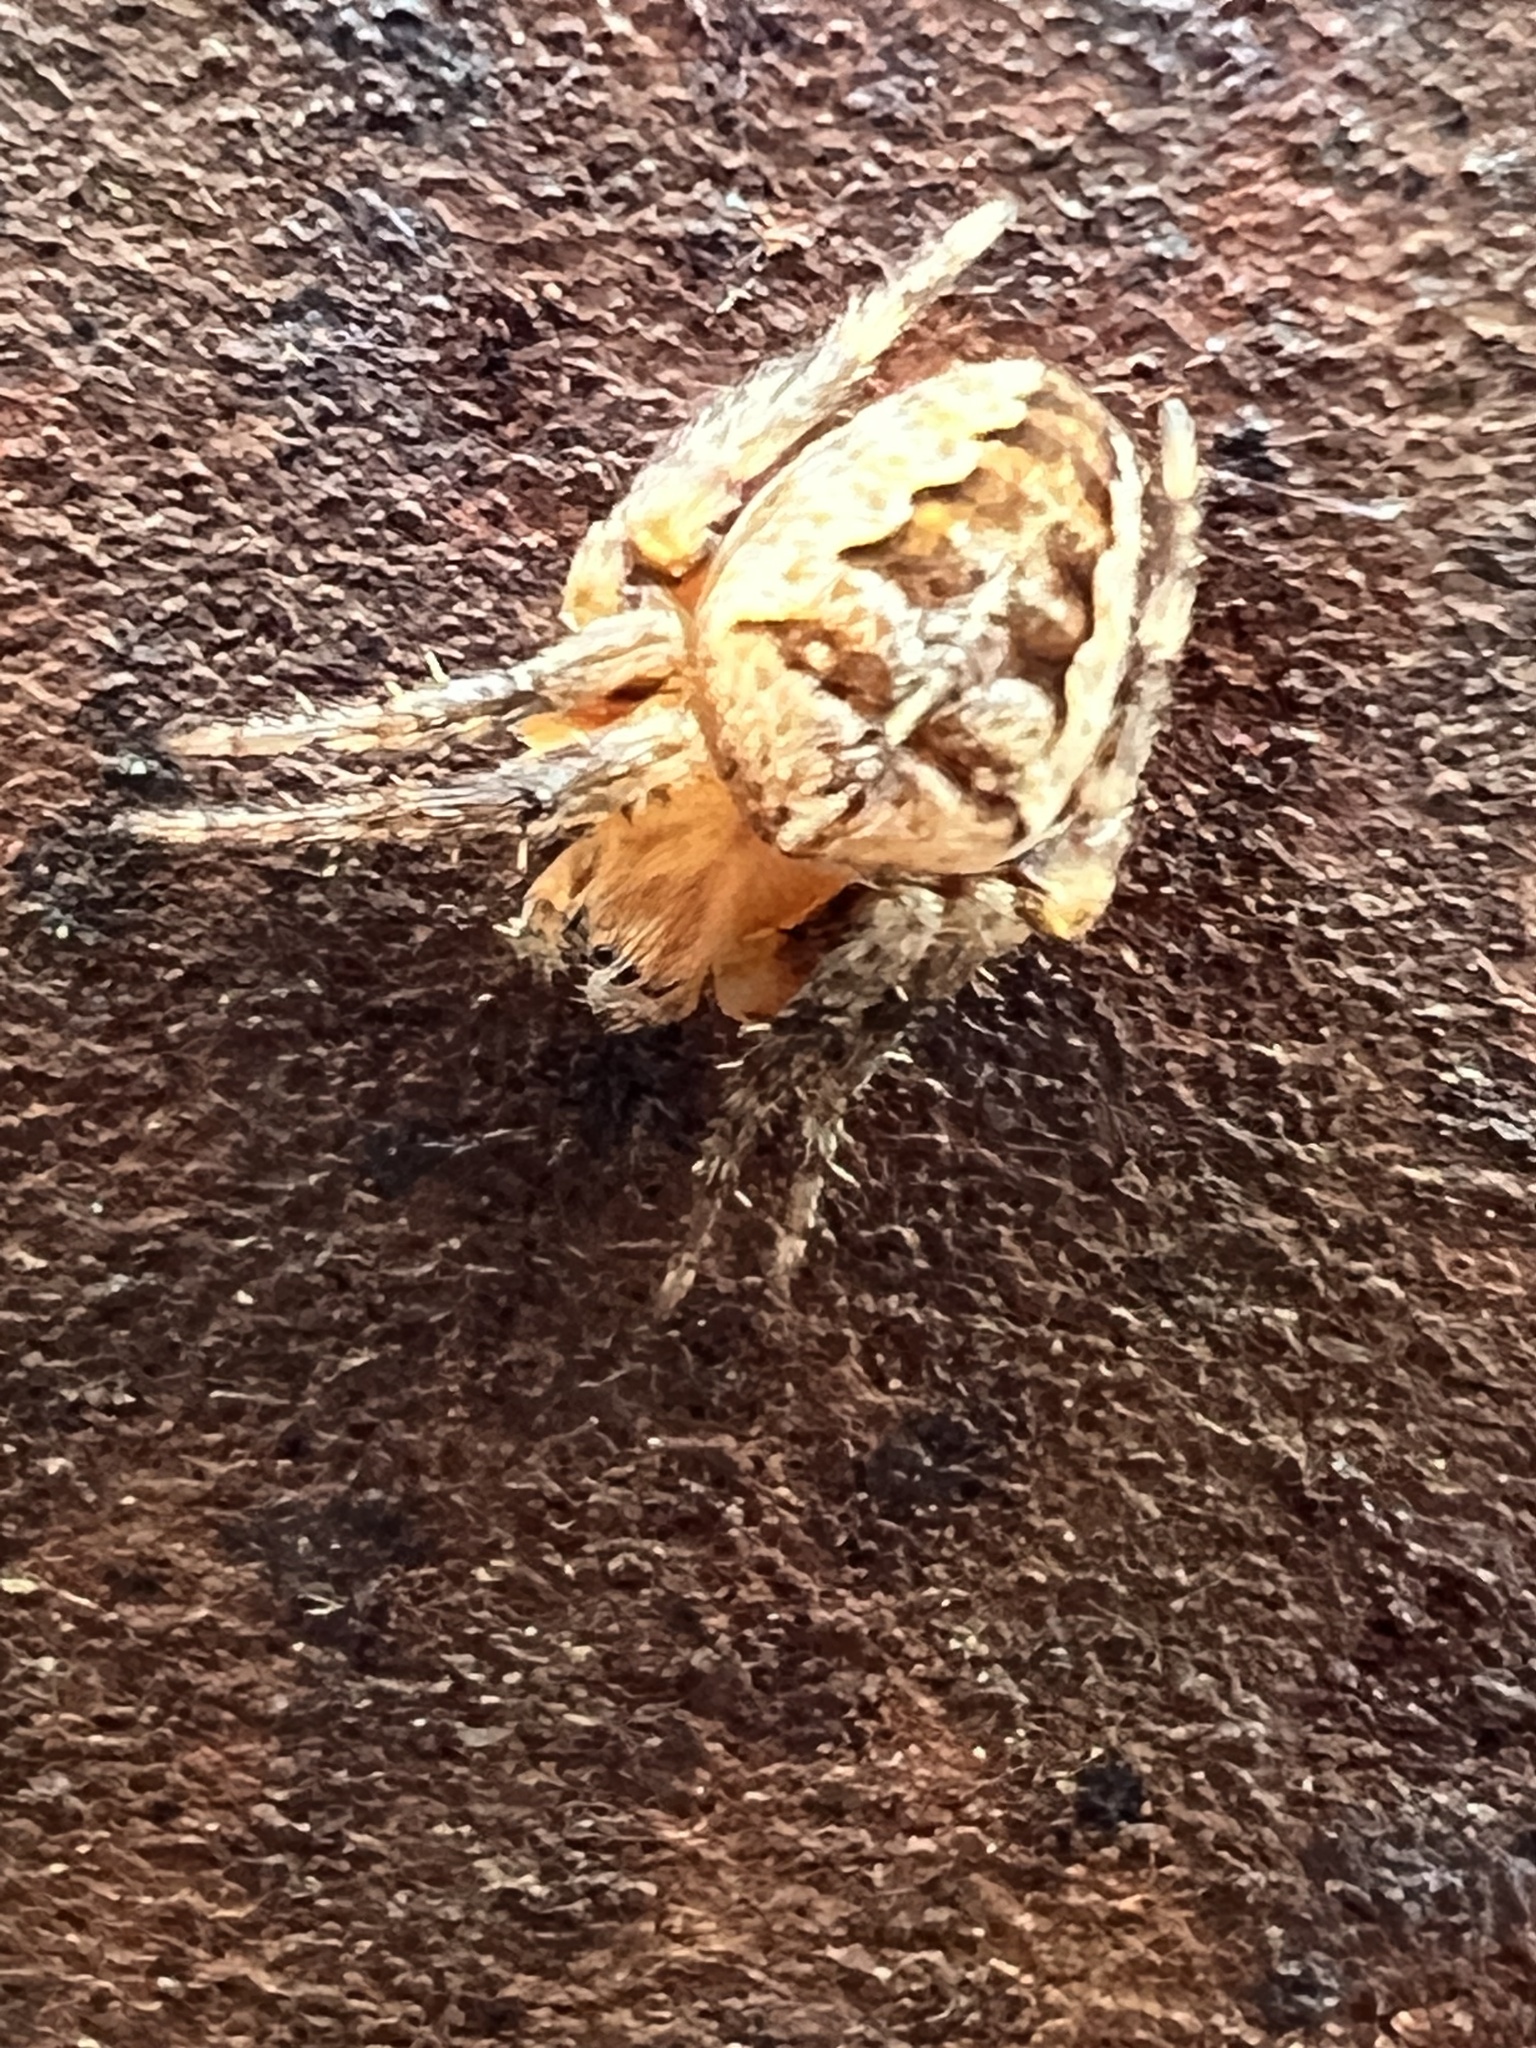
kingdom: Animalia
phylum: Arthropoda
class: Arachnida
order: Araneae
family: Araneidae
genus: Araneus
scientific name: Araneus diadematus
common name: Cross orbweaver
